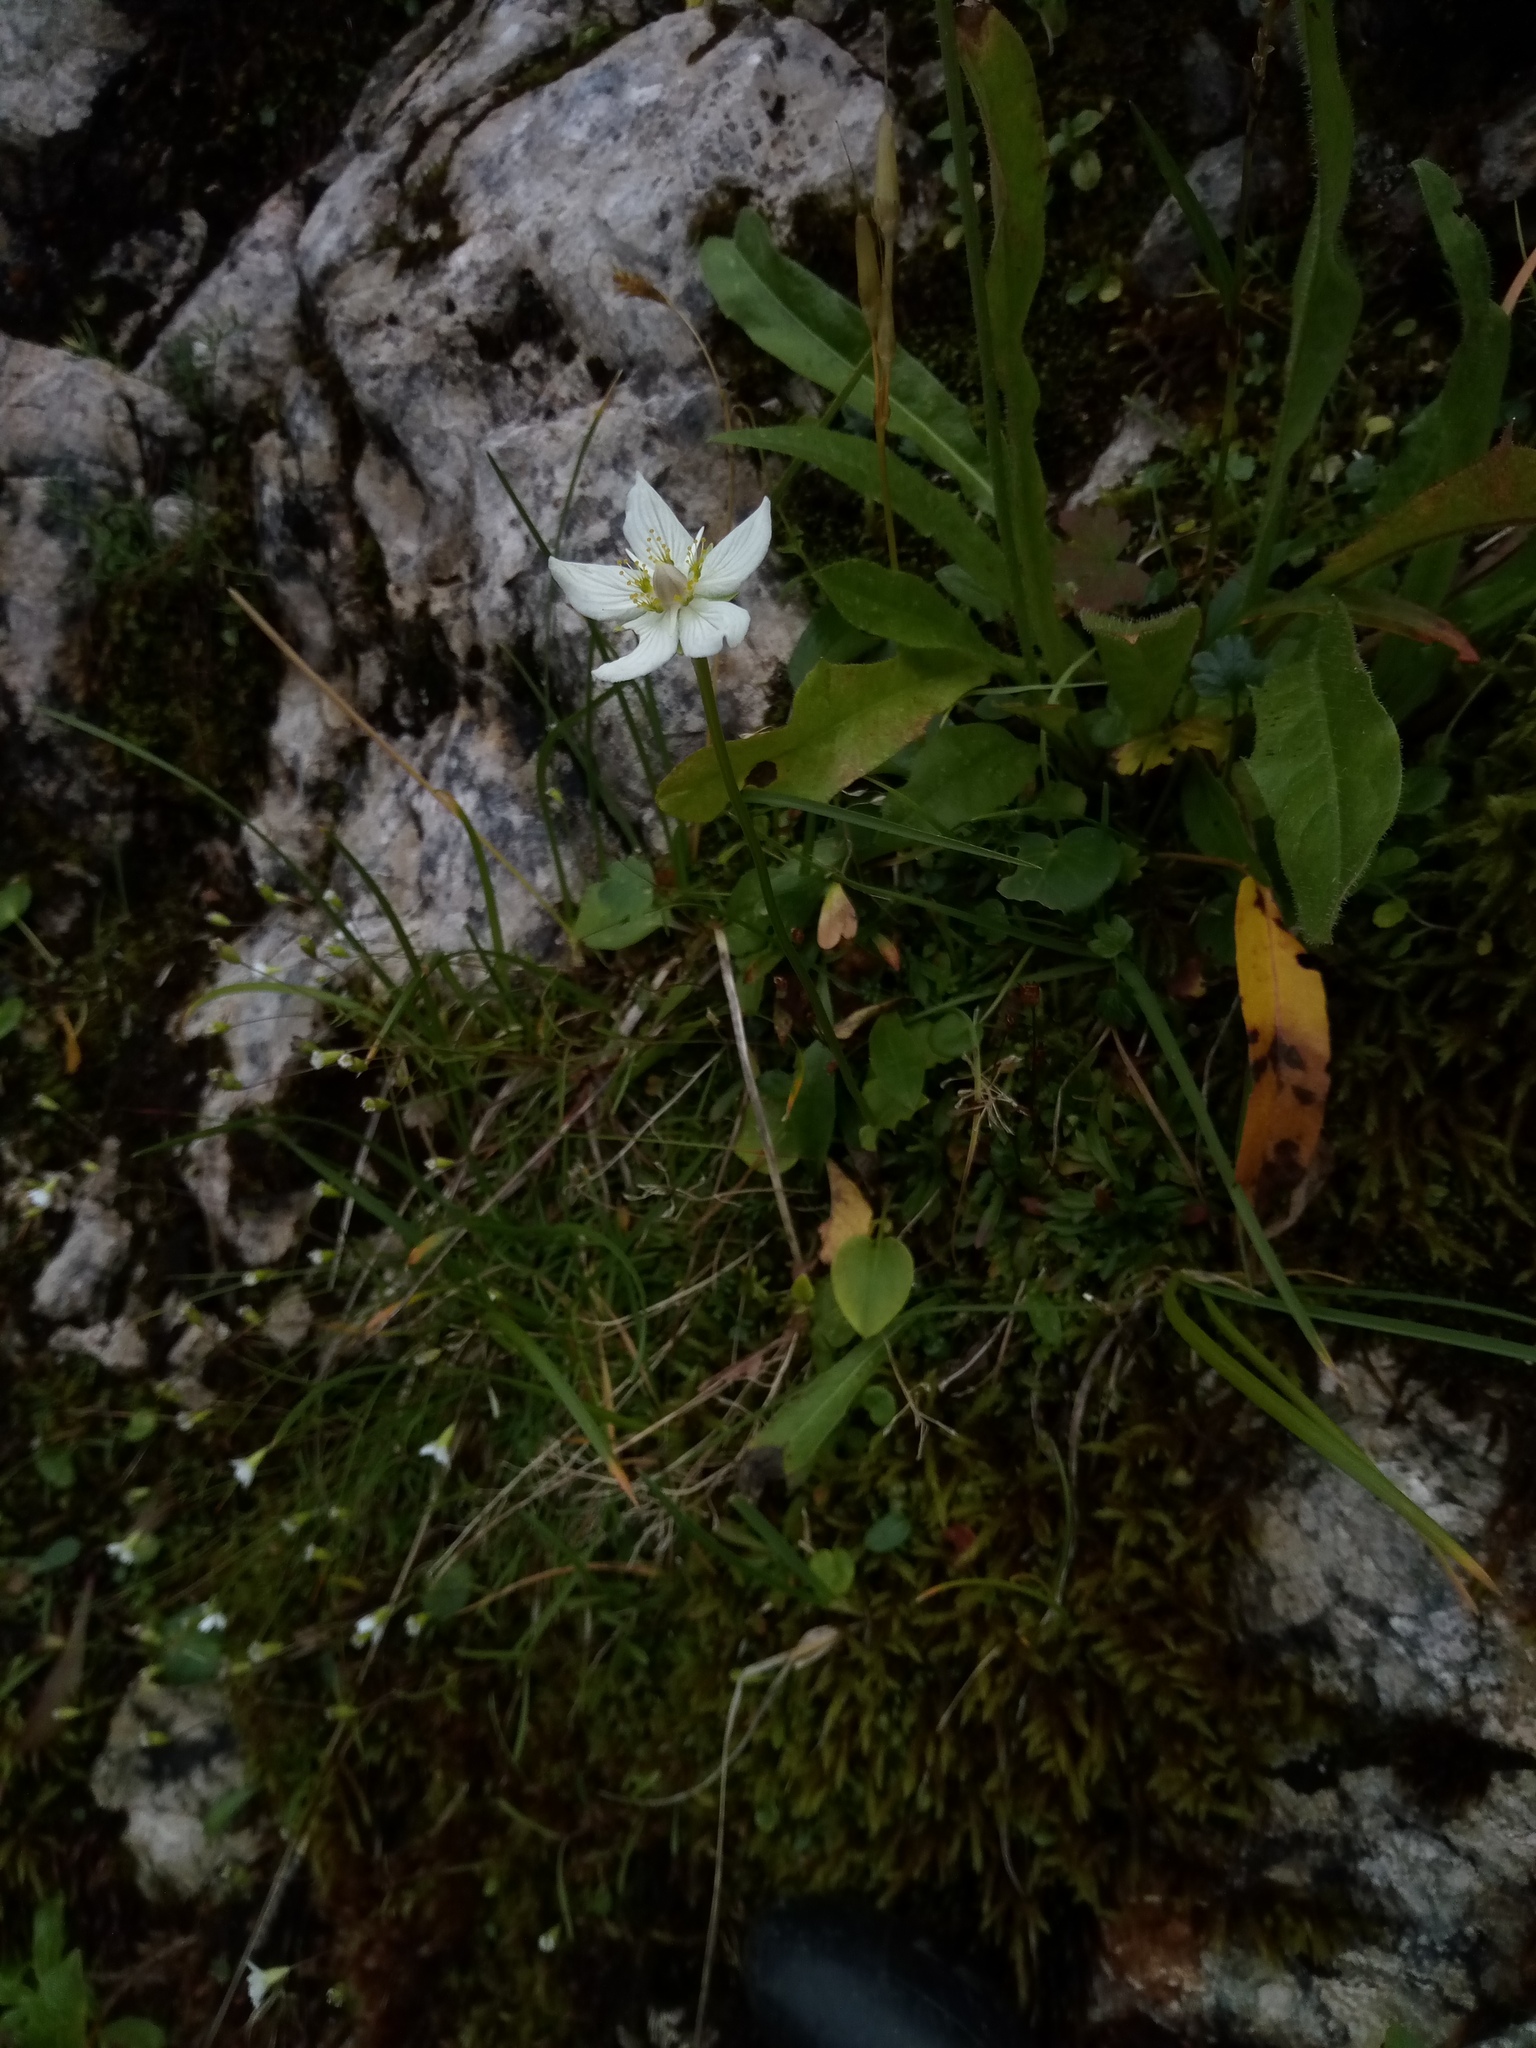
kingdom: Plantae
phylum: Tracheophyta
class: Magnoliopsida
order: Celastrales
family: Parnassiaceae
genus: Parnassia
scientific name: Parnassia palustris
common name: Grass-of-parnassus
